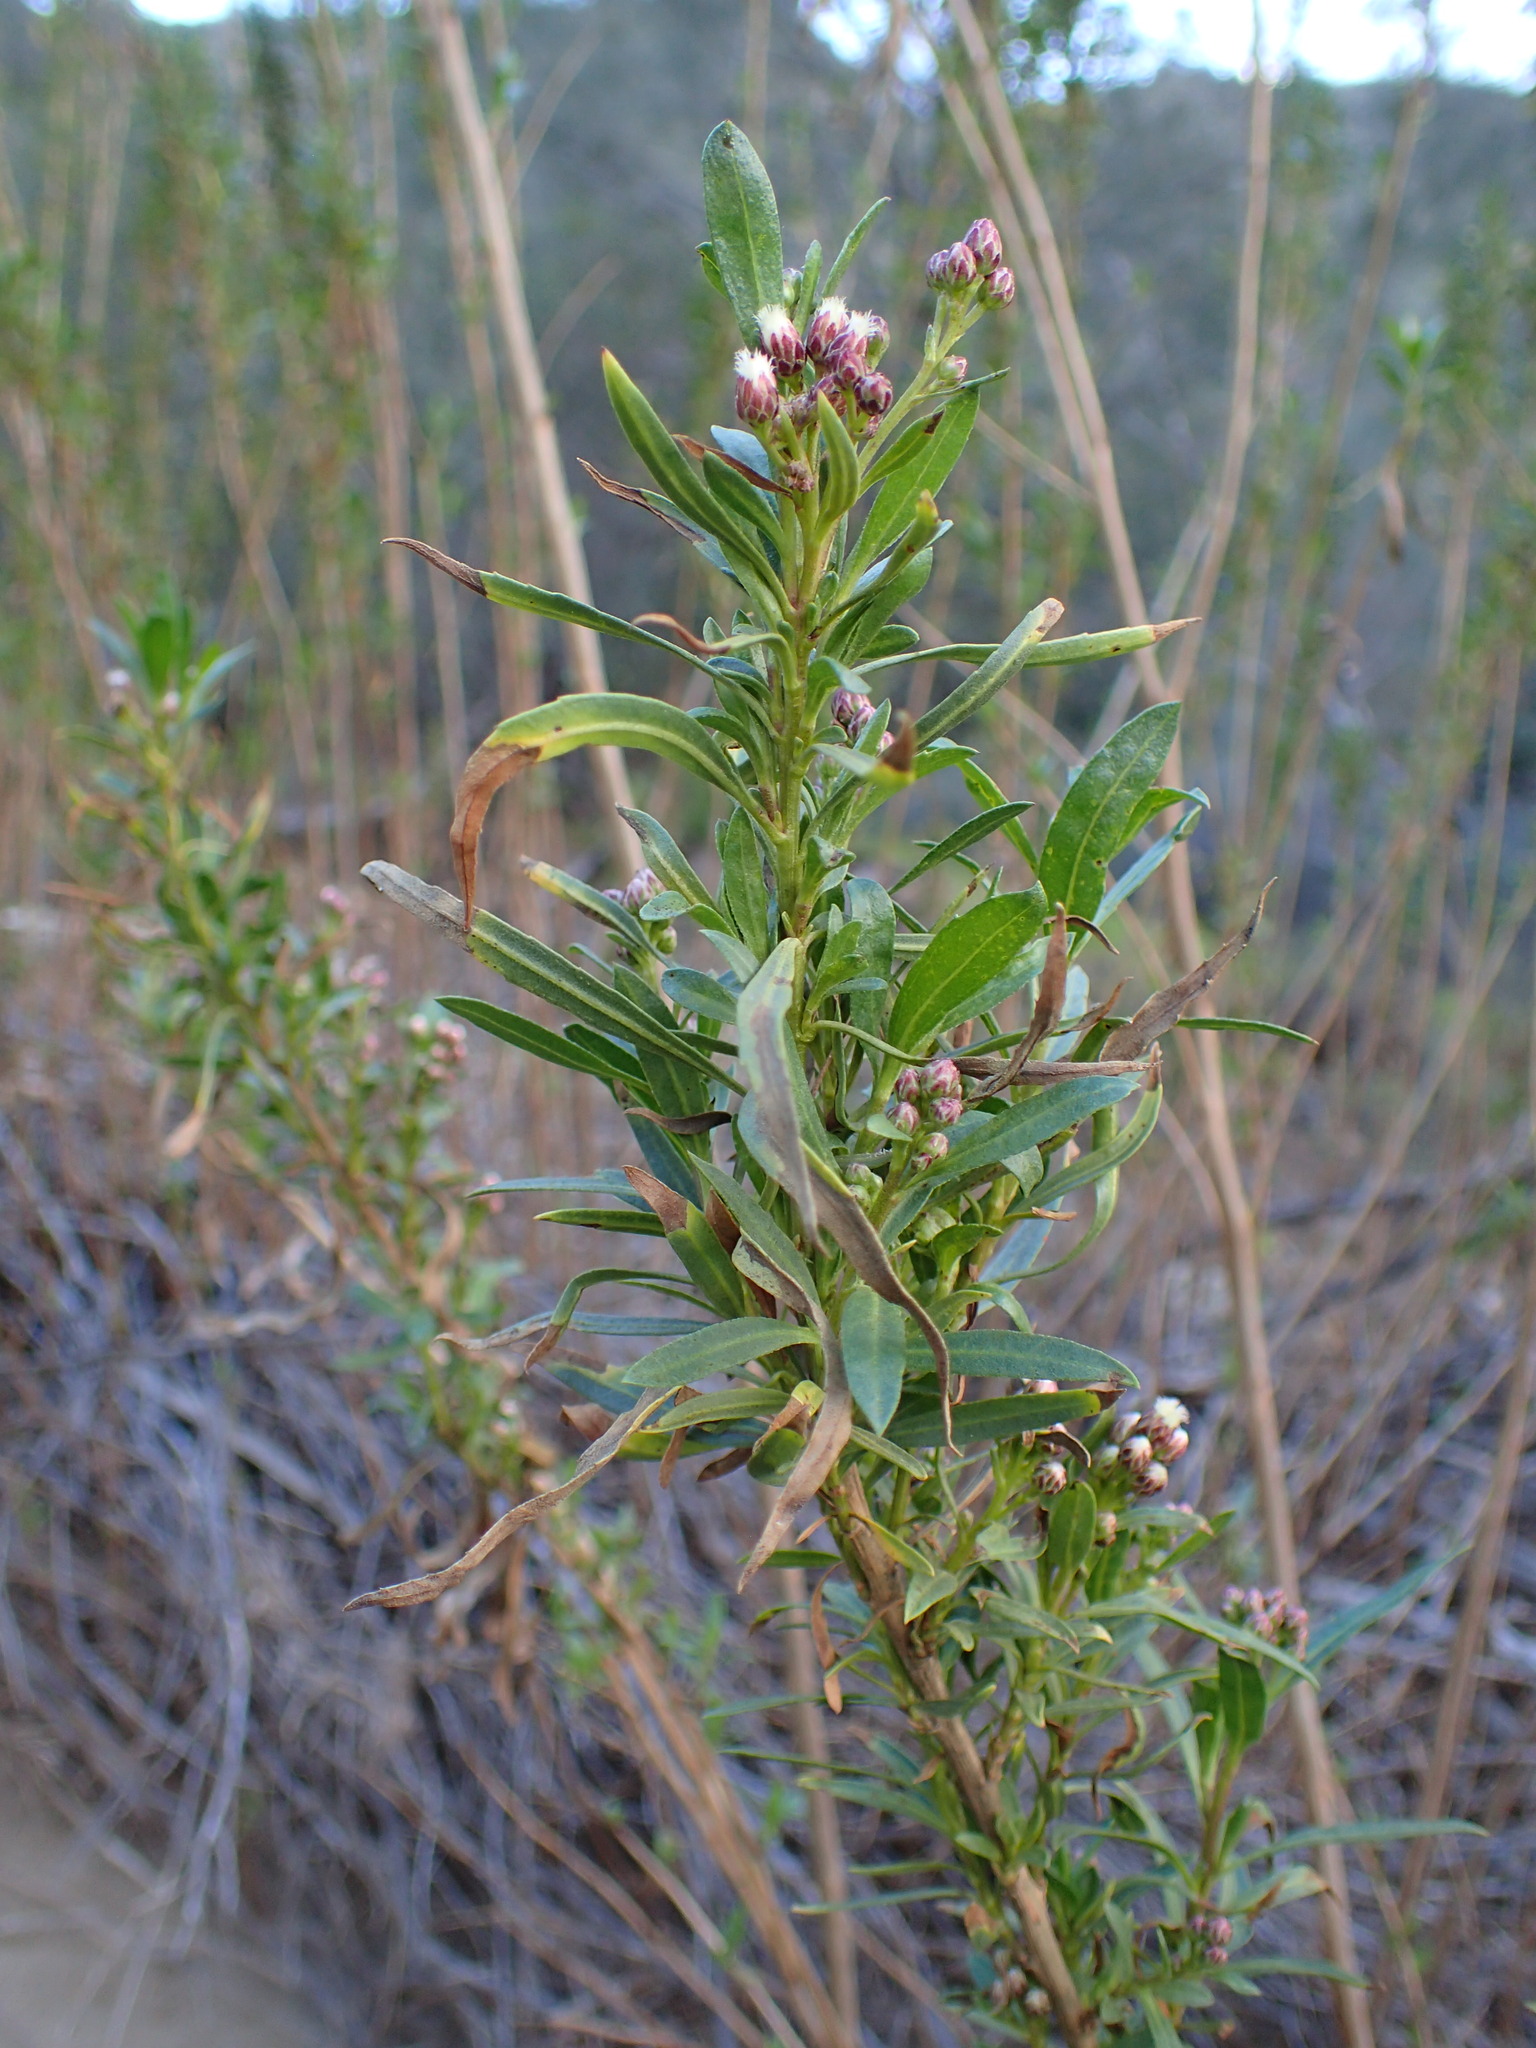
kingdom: Plantae
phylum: Tracheophyta
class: Magnoliopsida
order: Asterales
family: Asteraceae
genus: Baccharis
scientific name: Baccharis salicifolia
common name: Sticky baccharis
